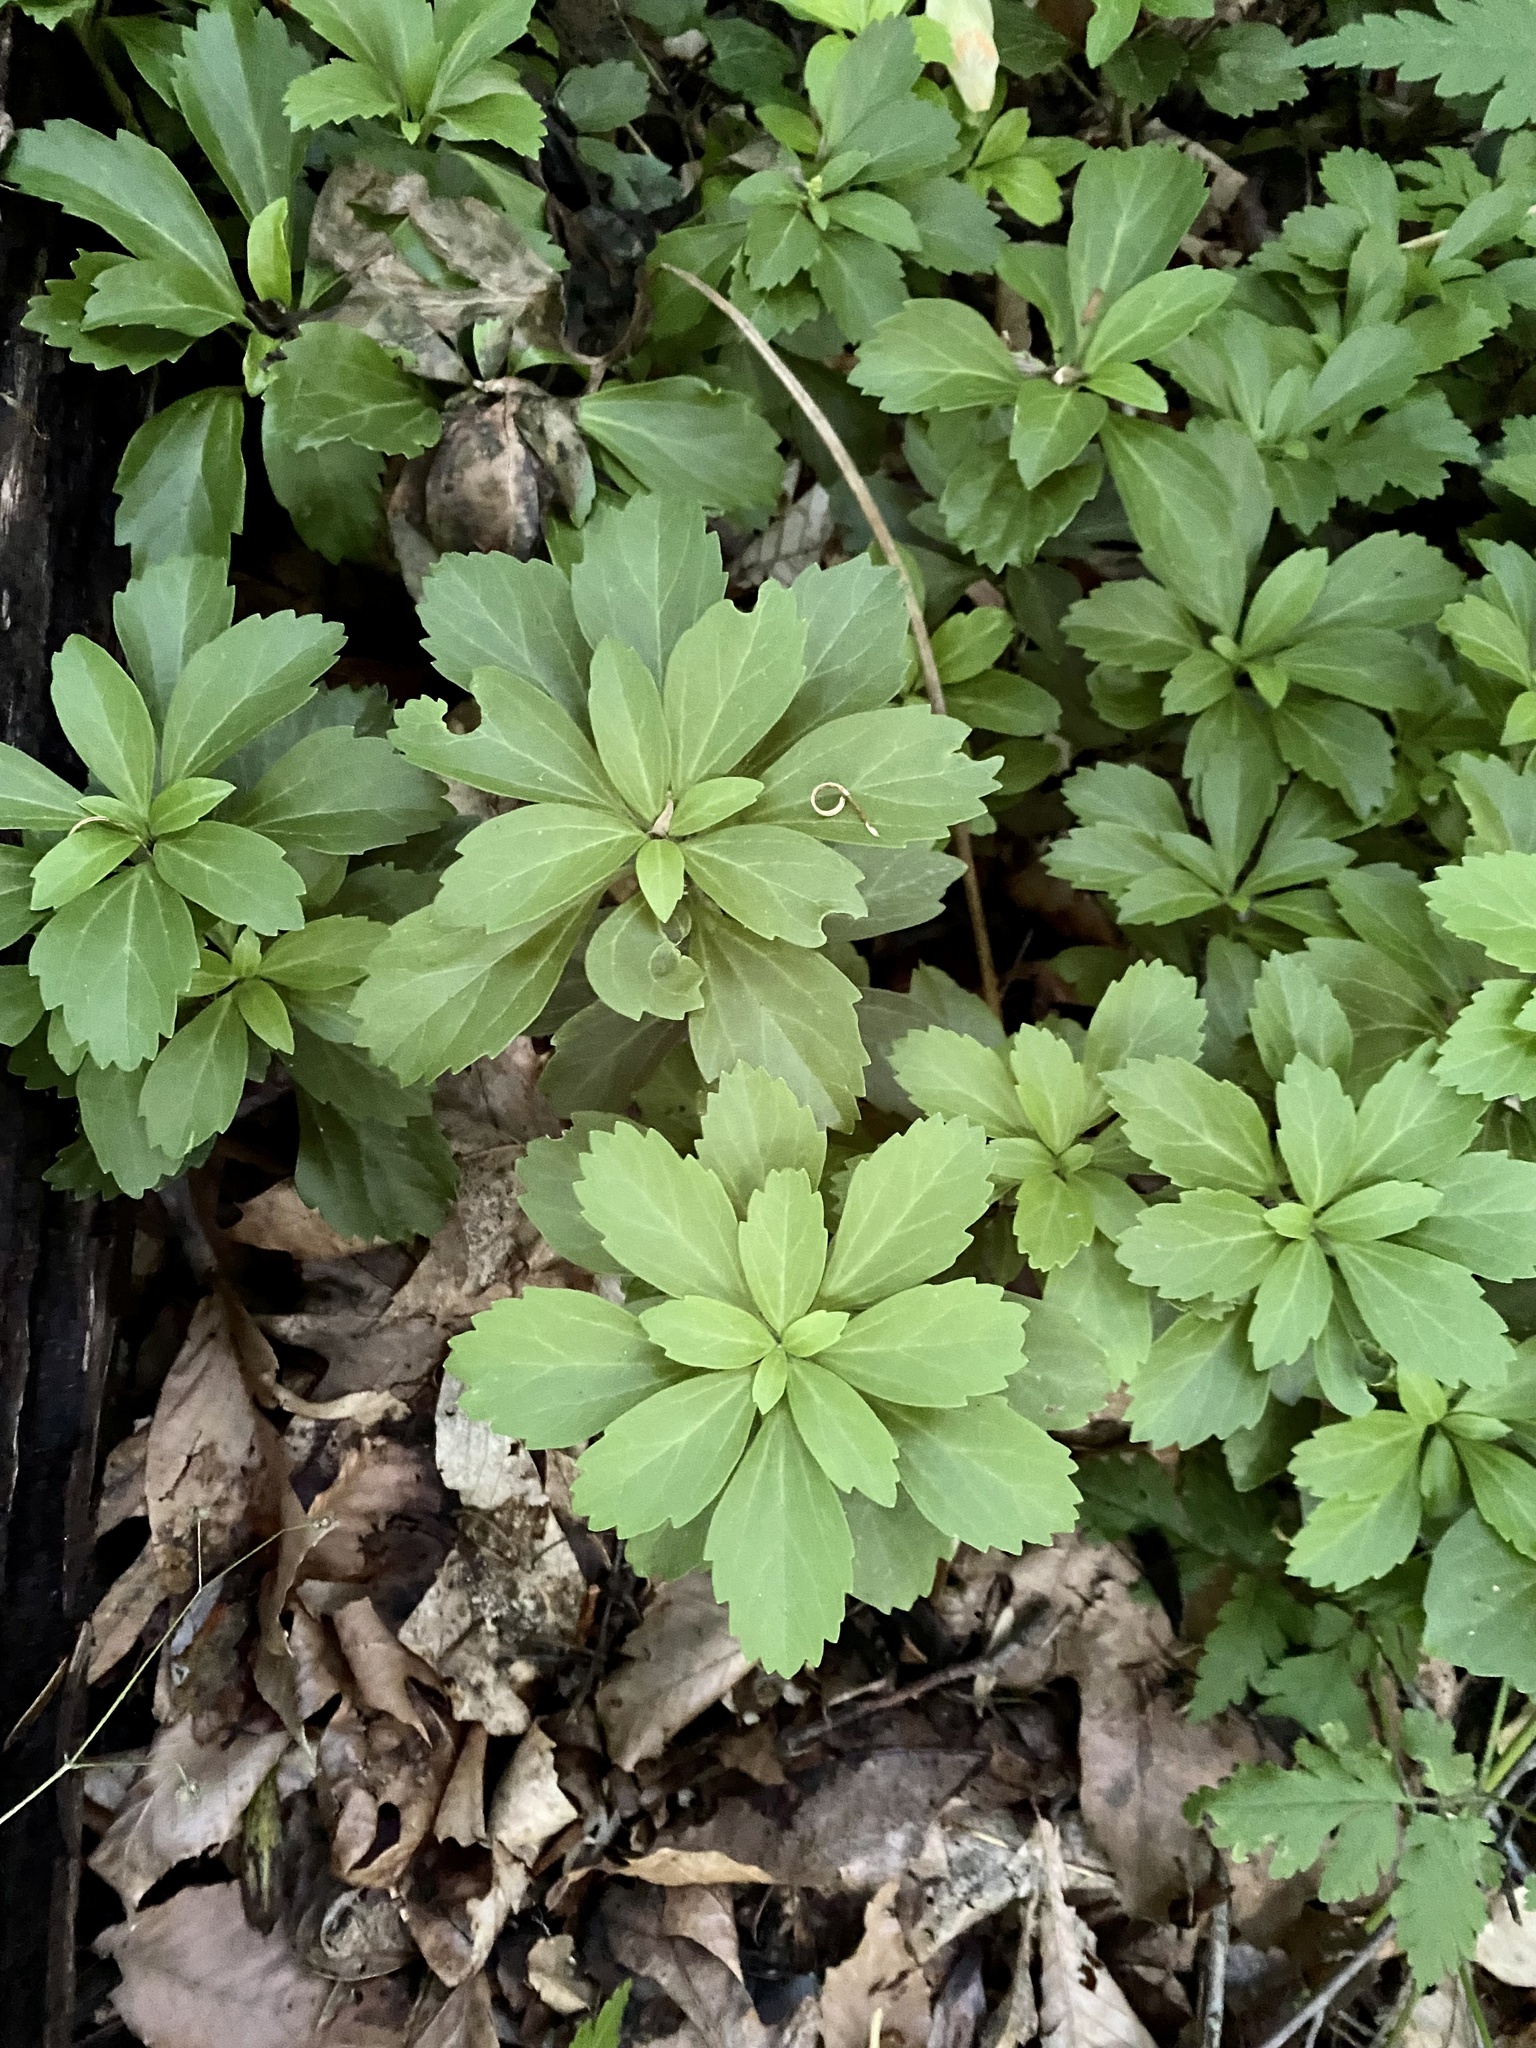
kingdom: Plantae
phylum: Tracheophyta
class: Magnoliopsida
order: Buxales
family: Buxaceae
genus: Pachysandra
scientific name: Pachysandra terminalis
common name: Japanese pachysandra
